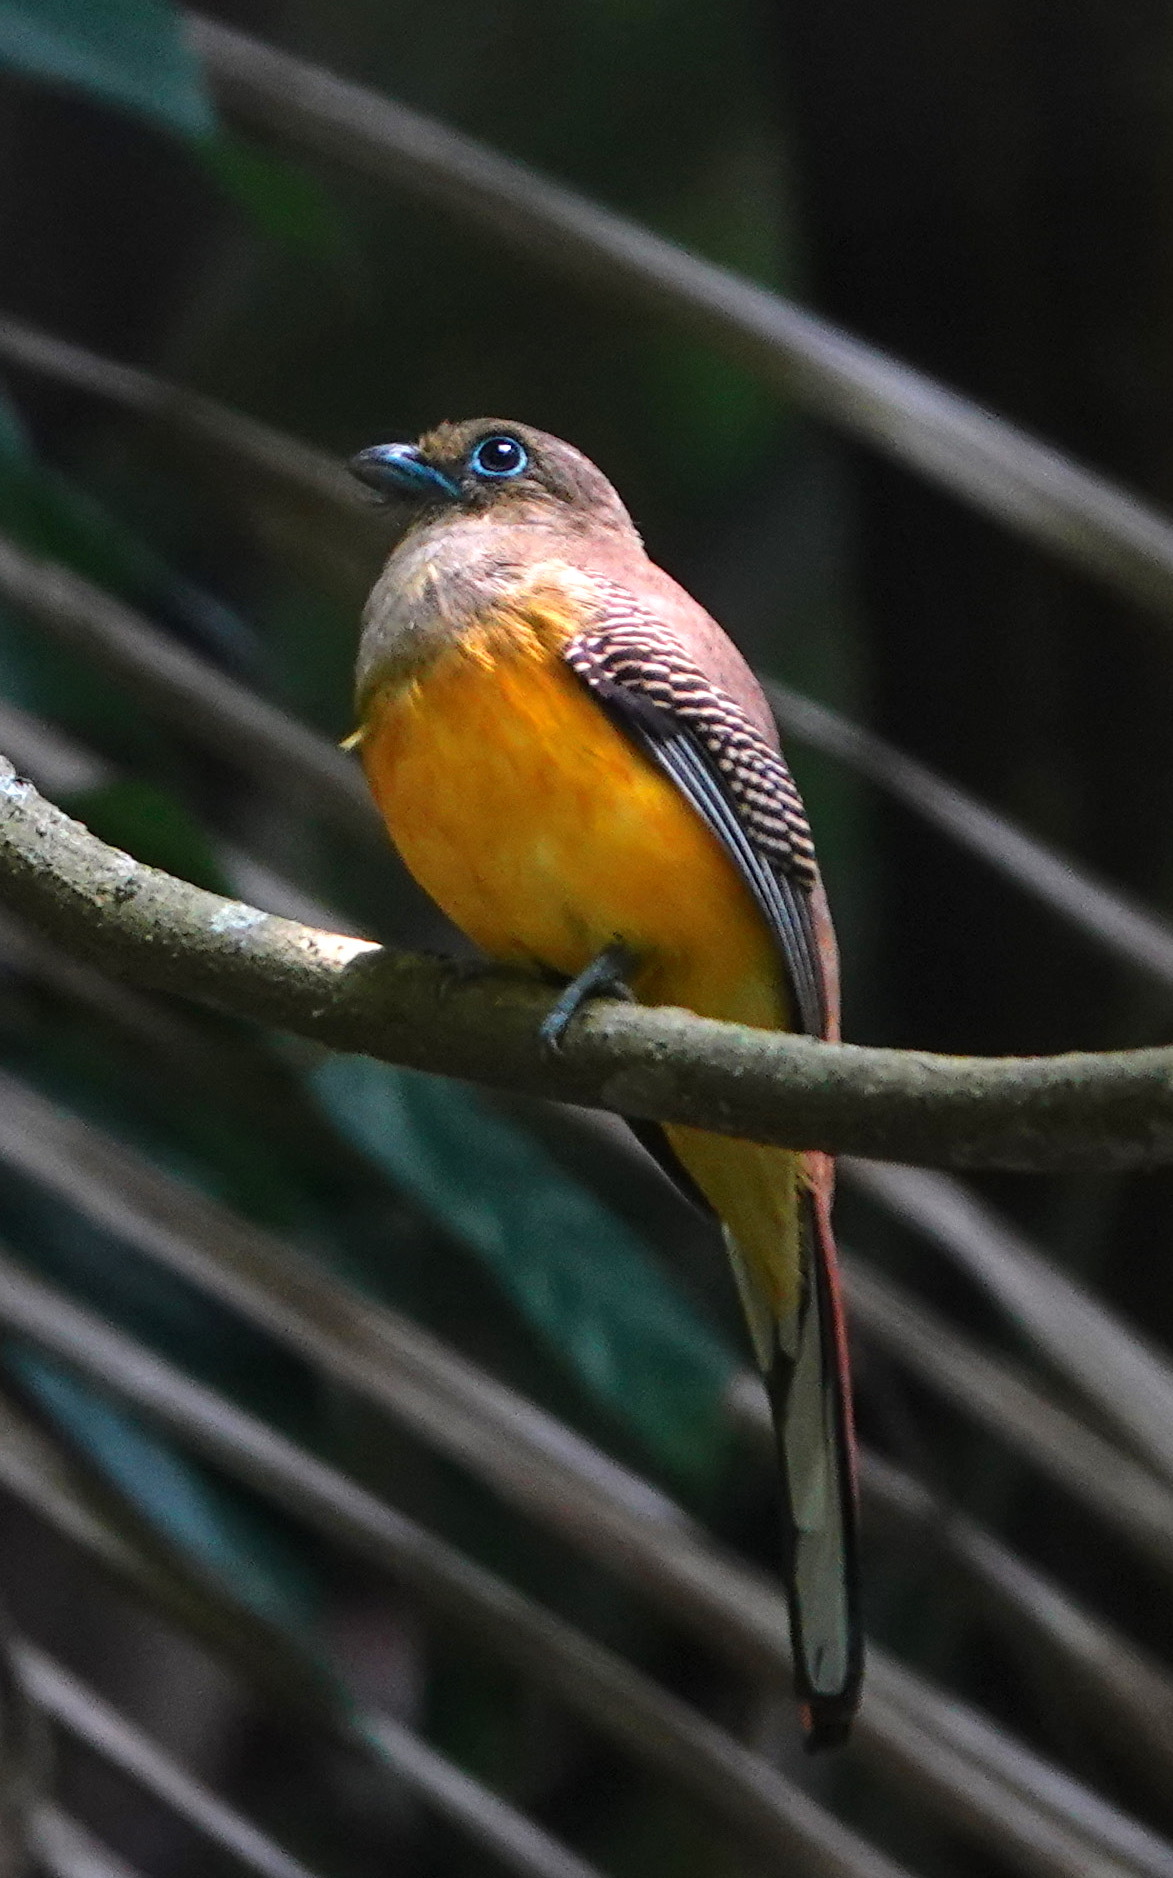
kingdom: Animalia
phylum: Chordata
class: Aves
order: Trogoniformes
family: Trogonidae
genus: Harpactes
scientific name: Harpactes oreskios
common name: Orange-breasted trogon
